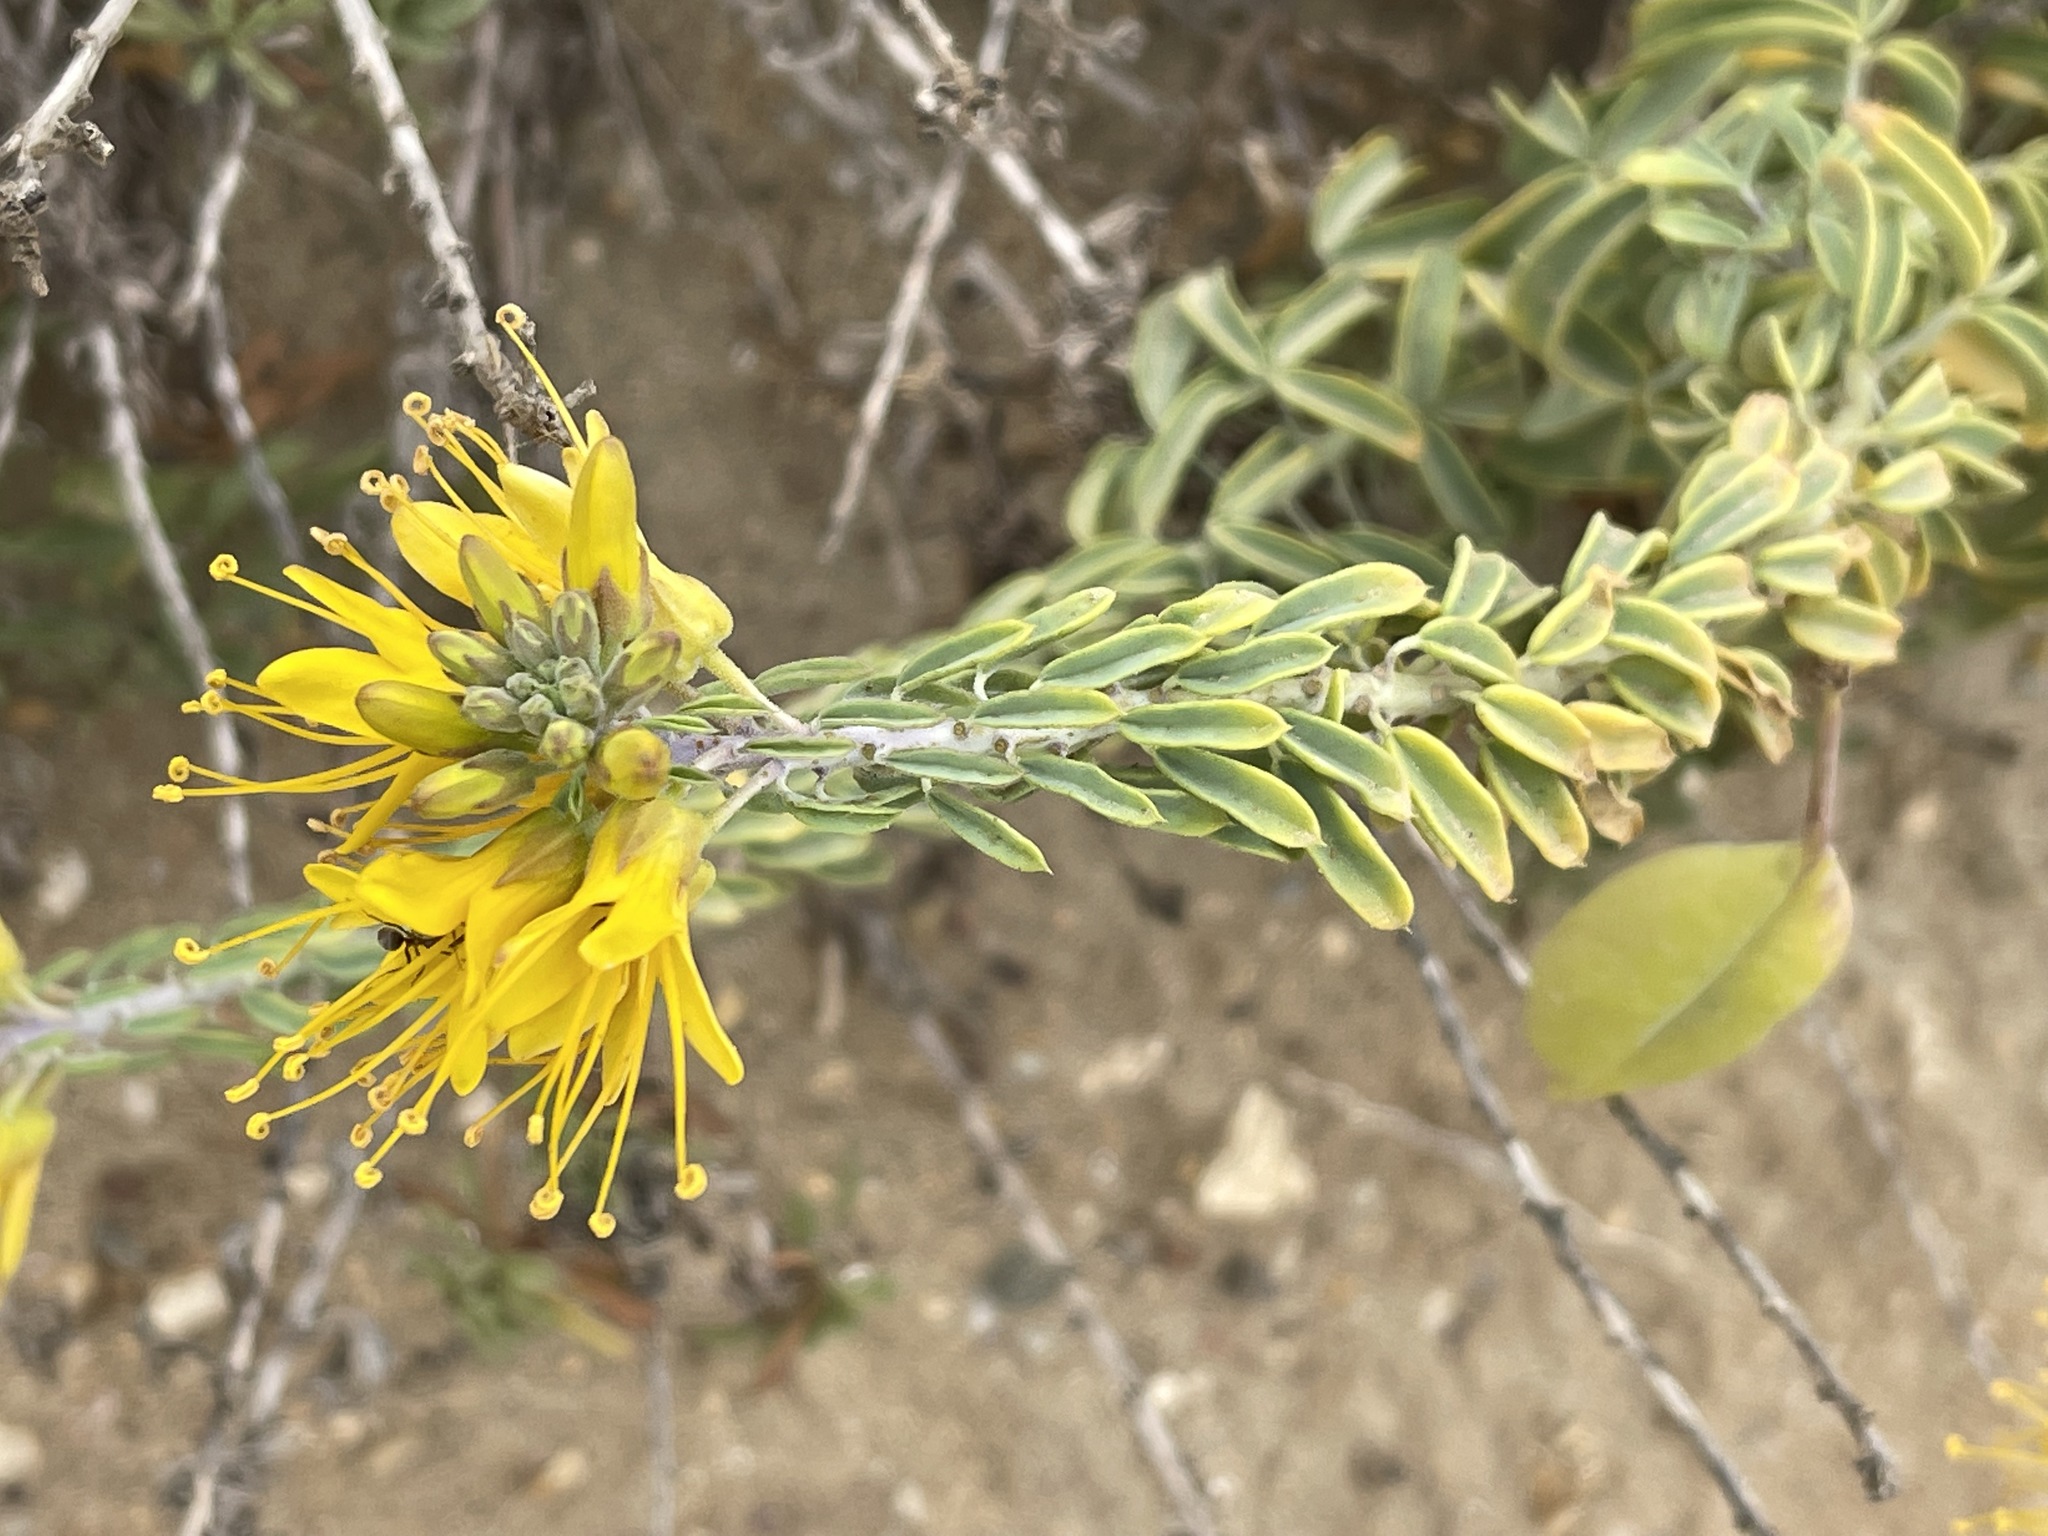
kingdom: Plantae
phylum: Tracheophyta
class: Magnoliopsida
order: Brassicales
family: Cleomaceae
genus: Cleomella
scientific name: Cleomella arborea
